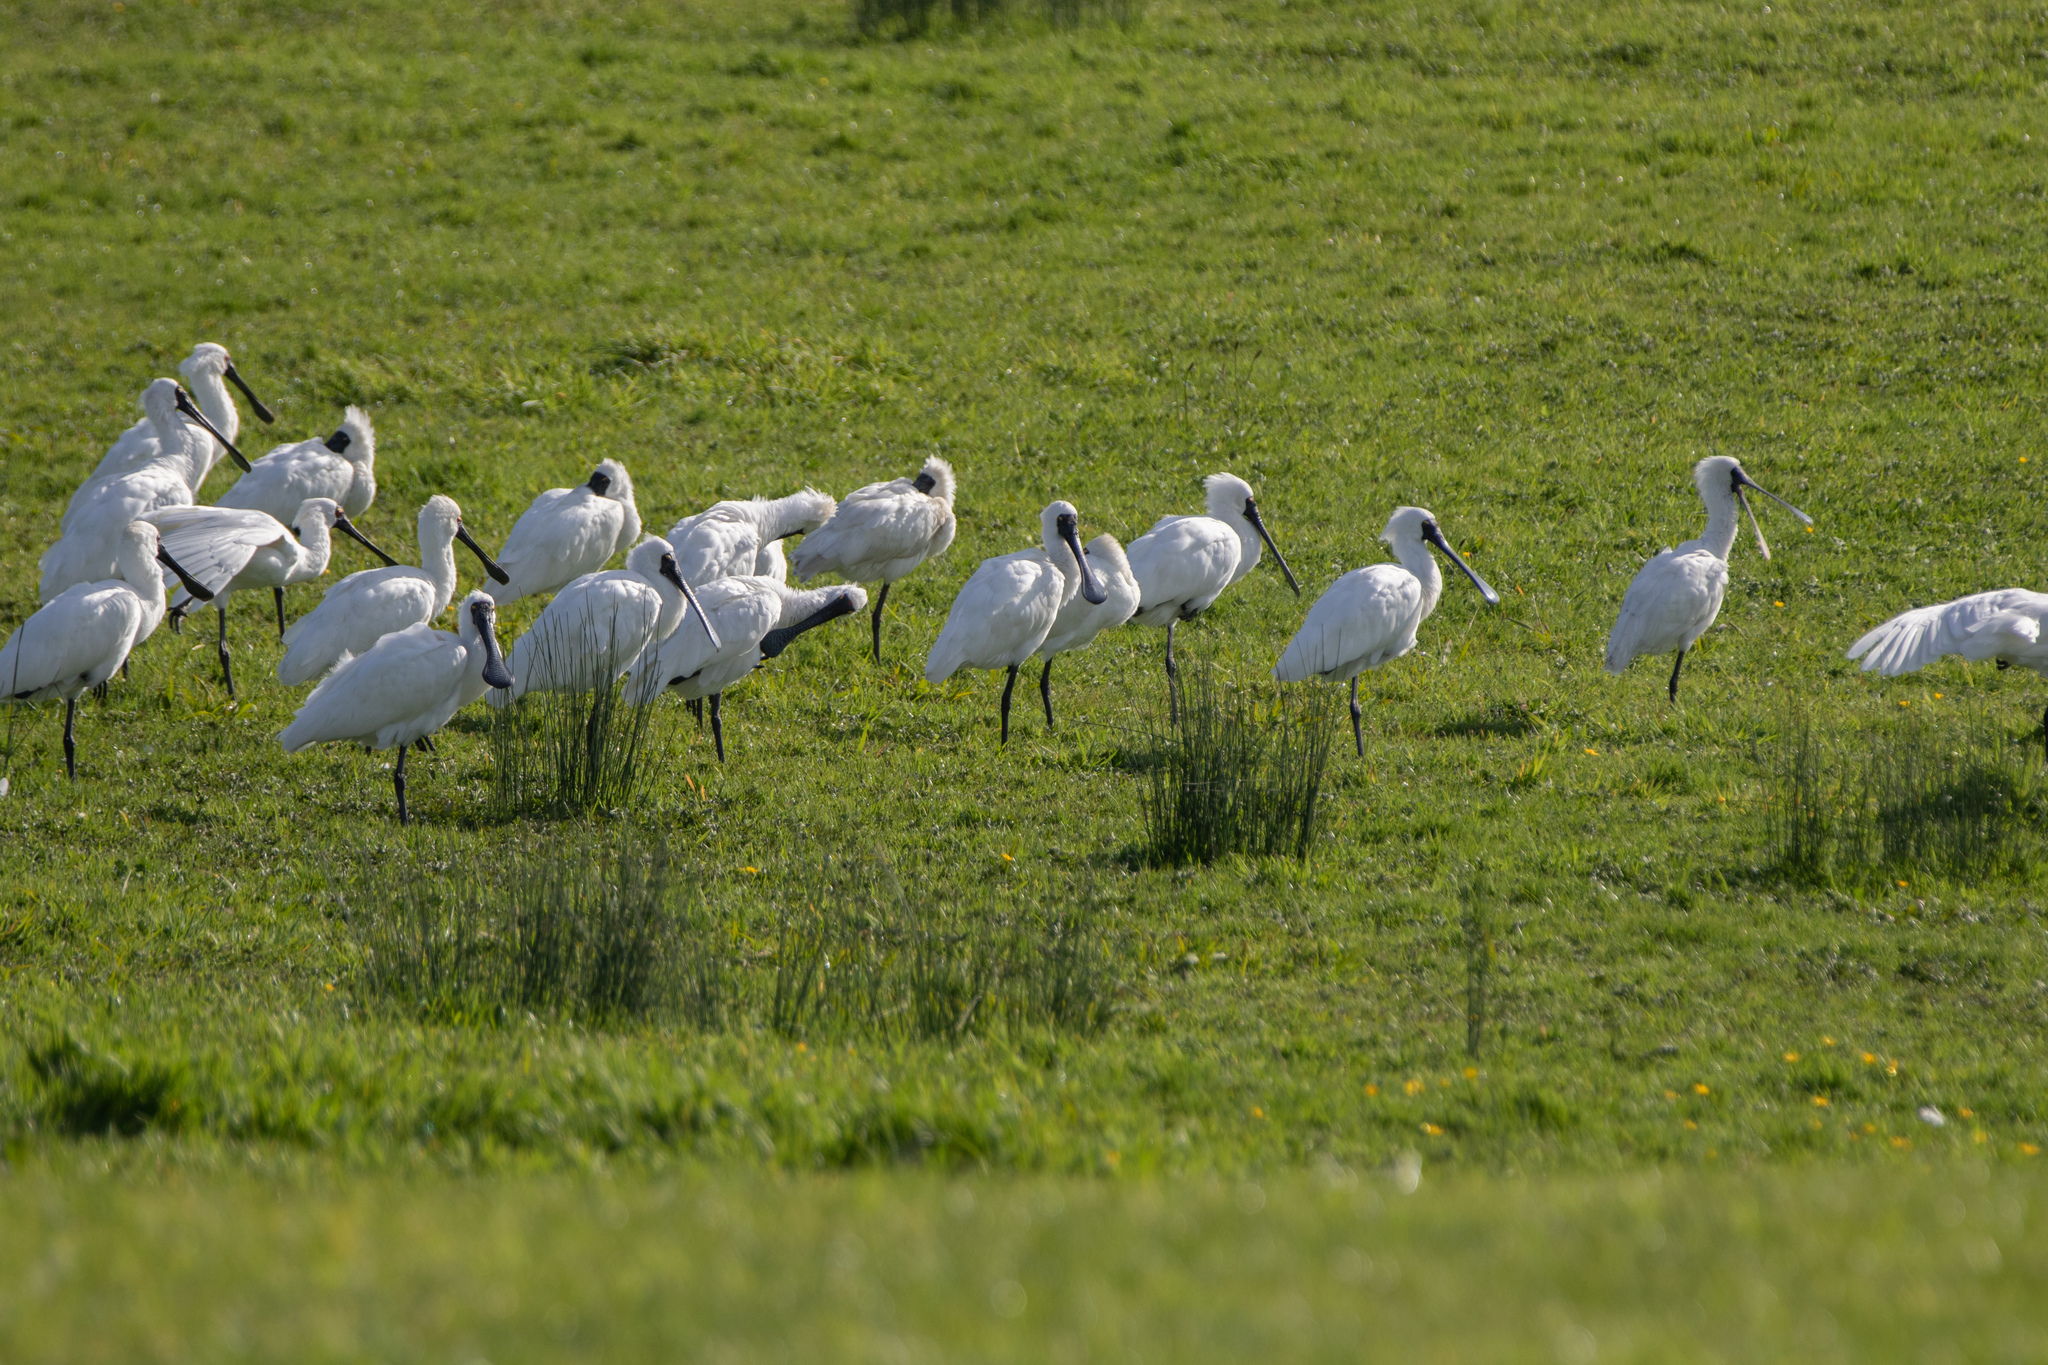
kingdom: Animalia
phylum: Chordata
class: Aves
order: Pelecaniformes
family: Threskiornithidae
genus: Platalea
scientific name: Platalea regia
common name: Royal spoonbill
